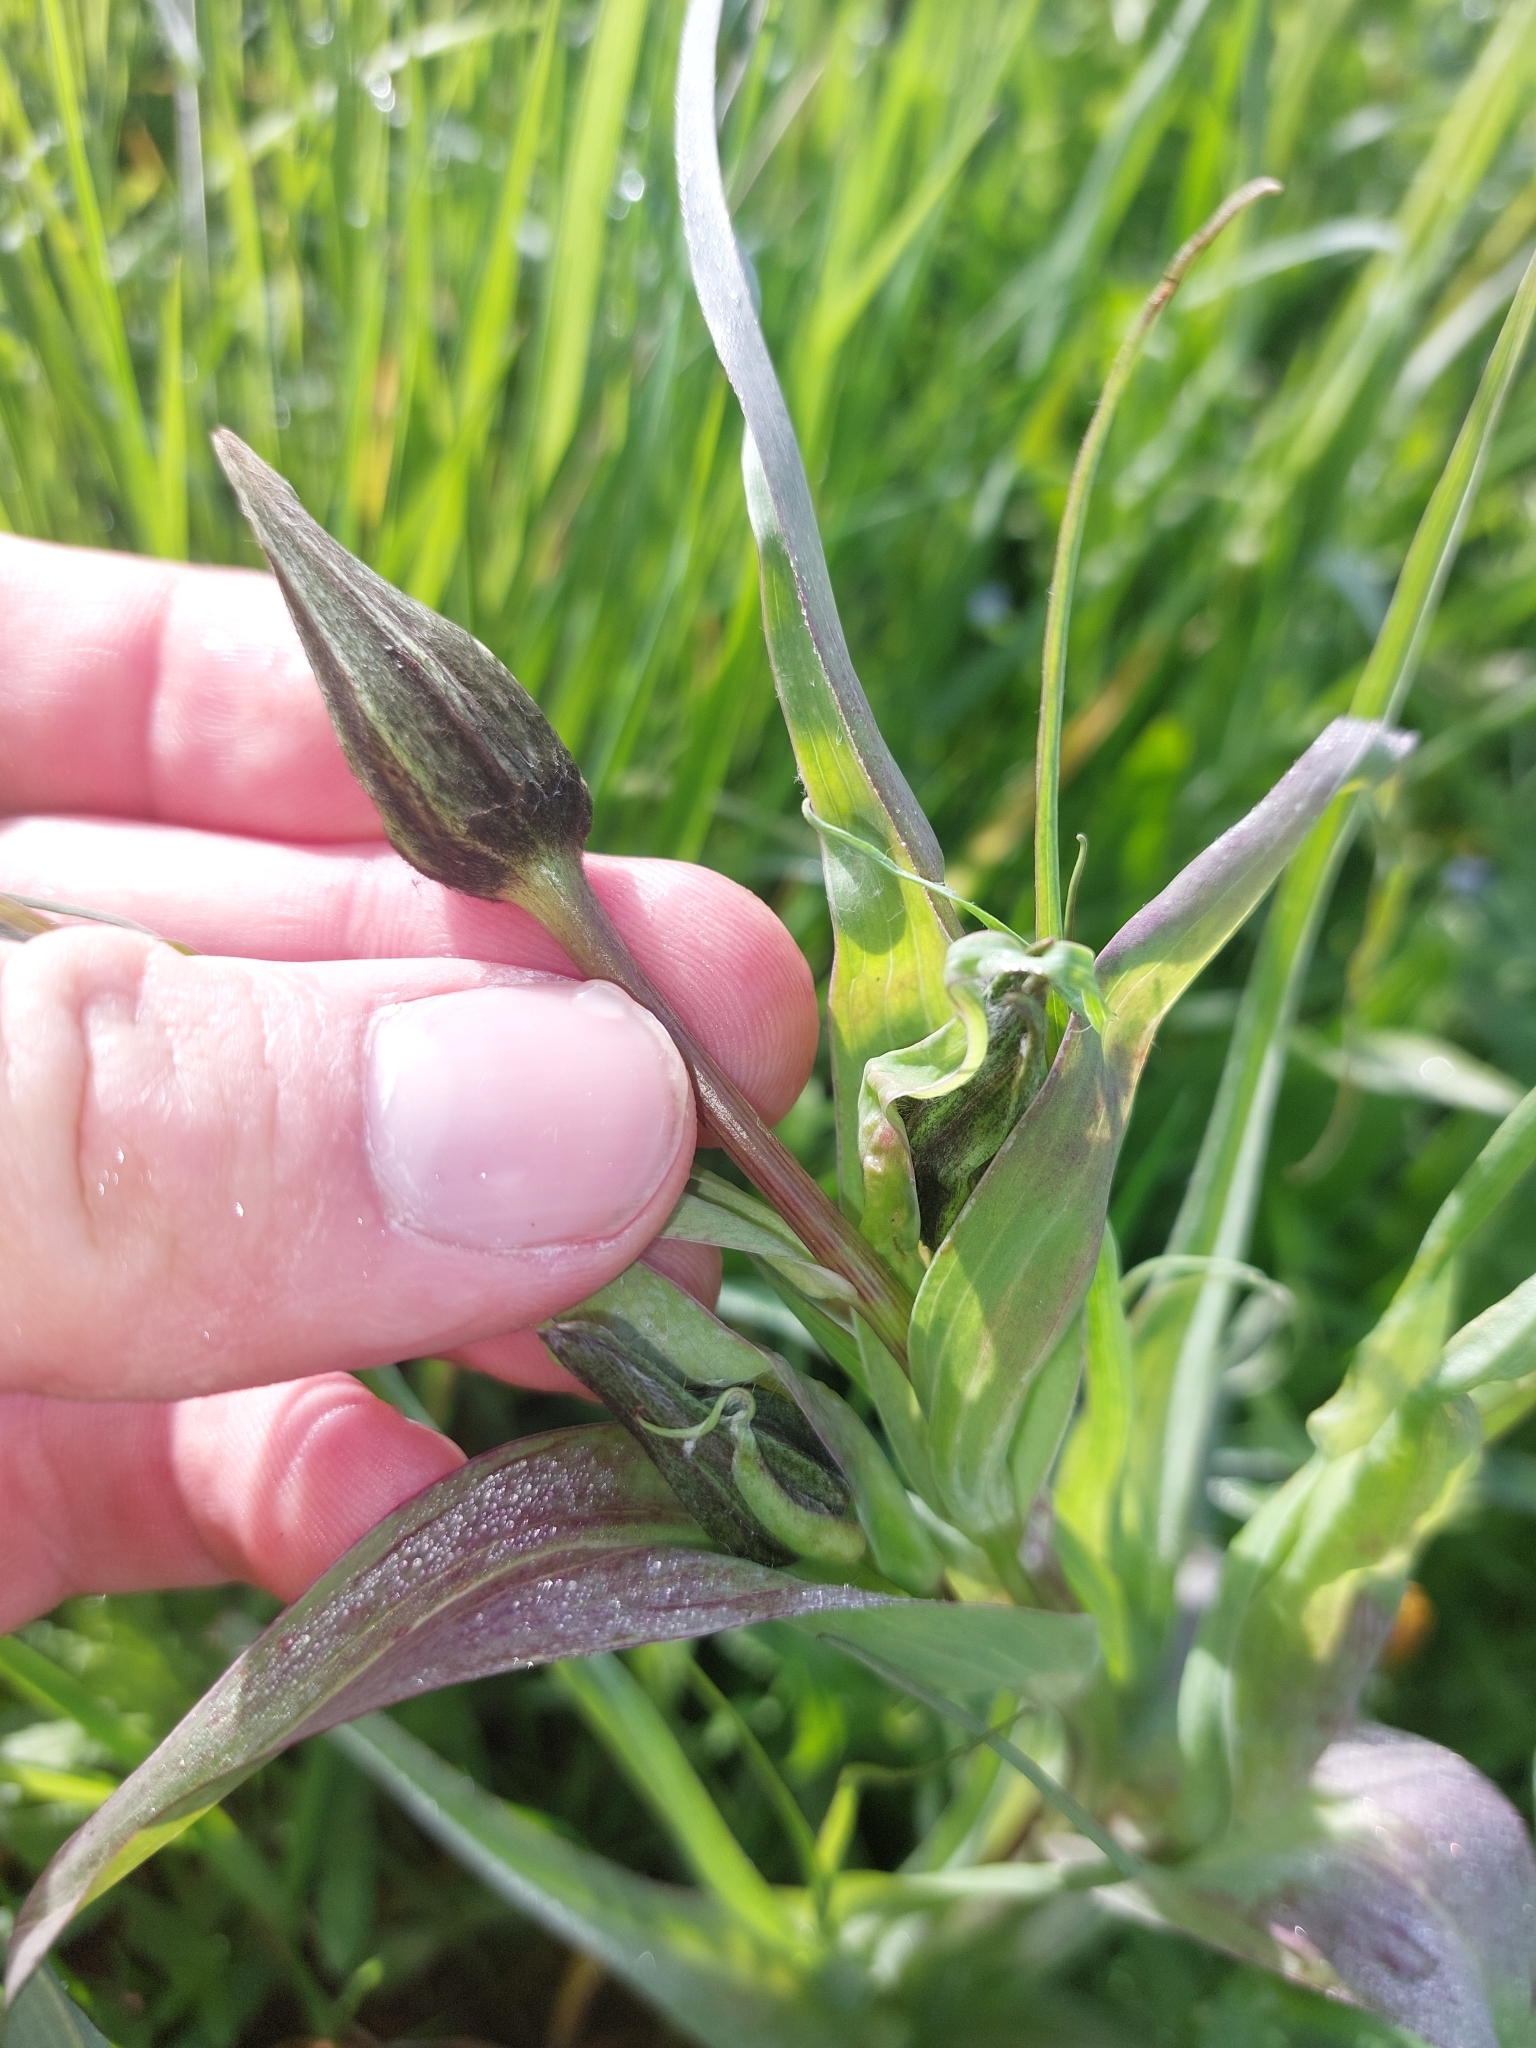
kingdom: Plantae
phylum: Tracheophyta
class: Magnoliopsida
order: Asterales
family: Asteraceae
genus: Tragopogon
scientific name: Tragopogon orientalis
